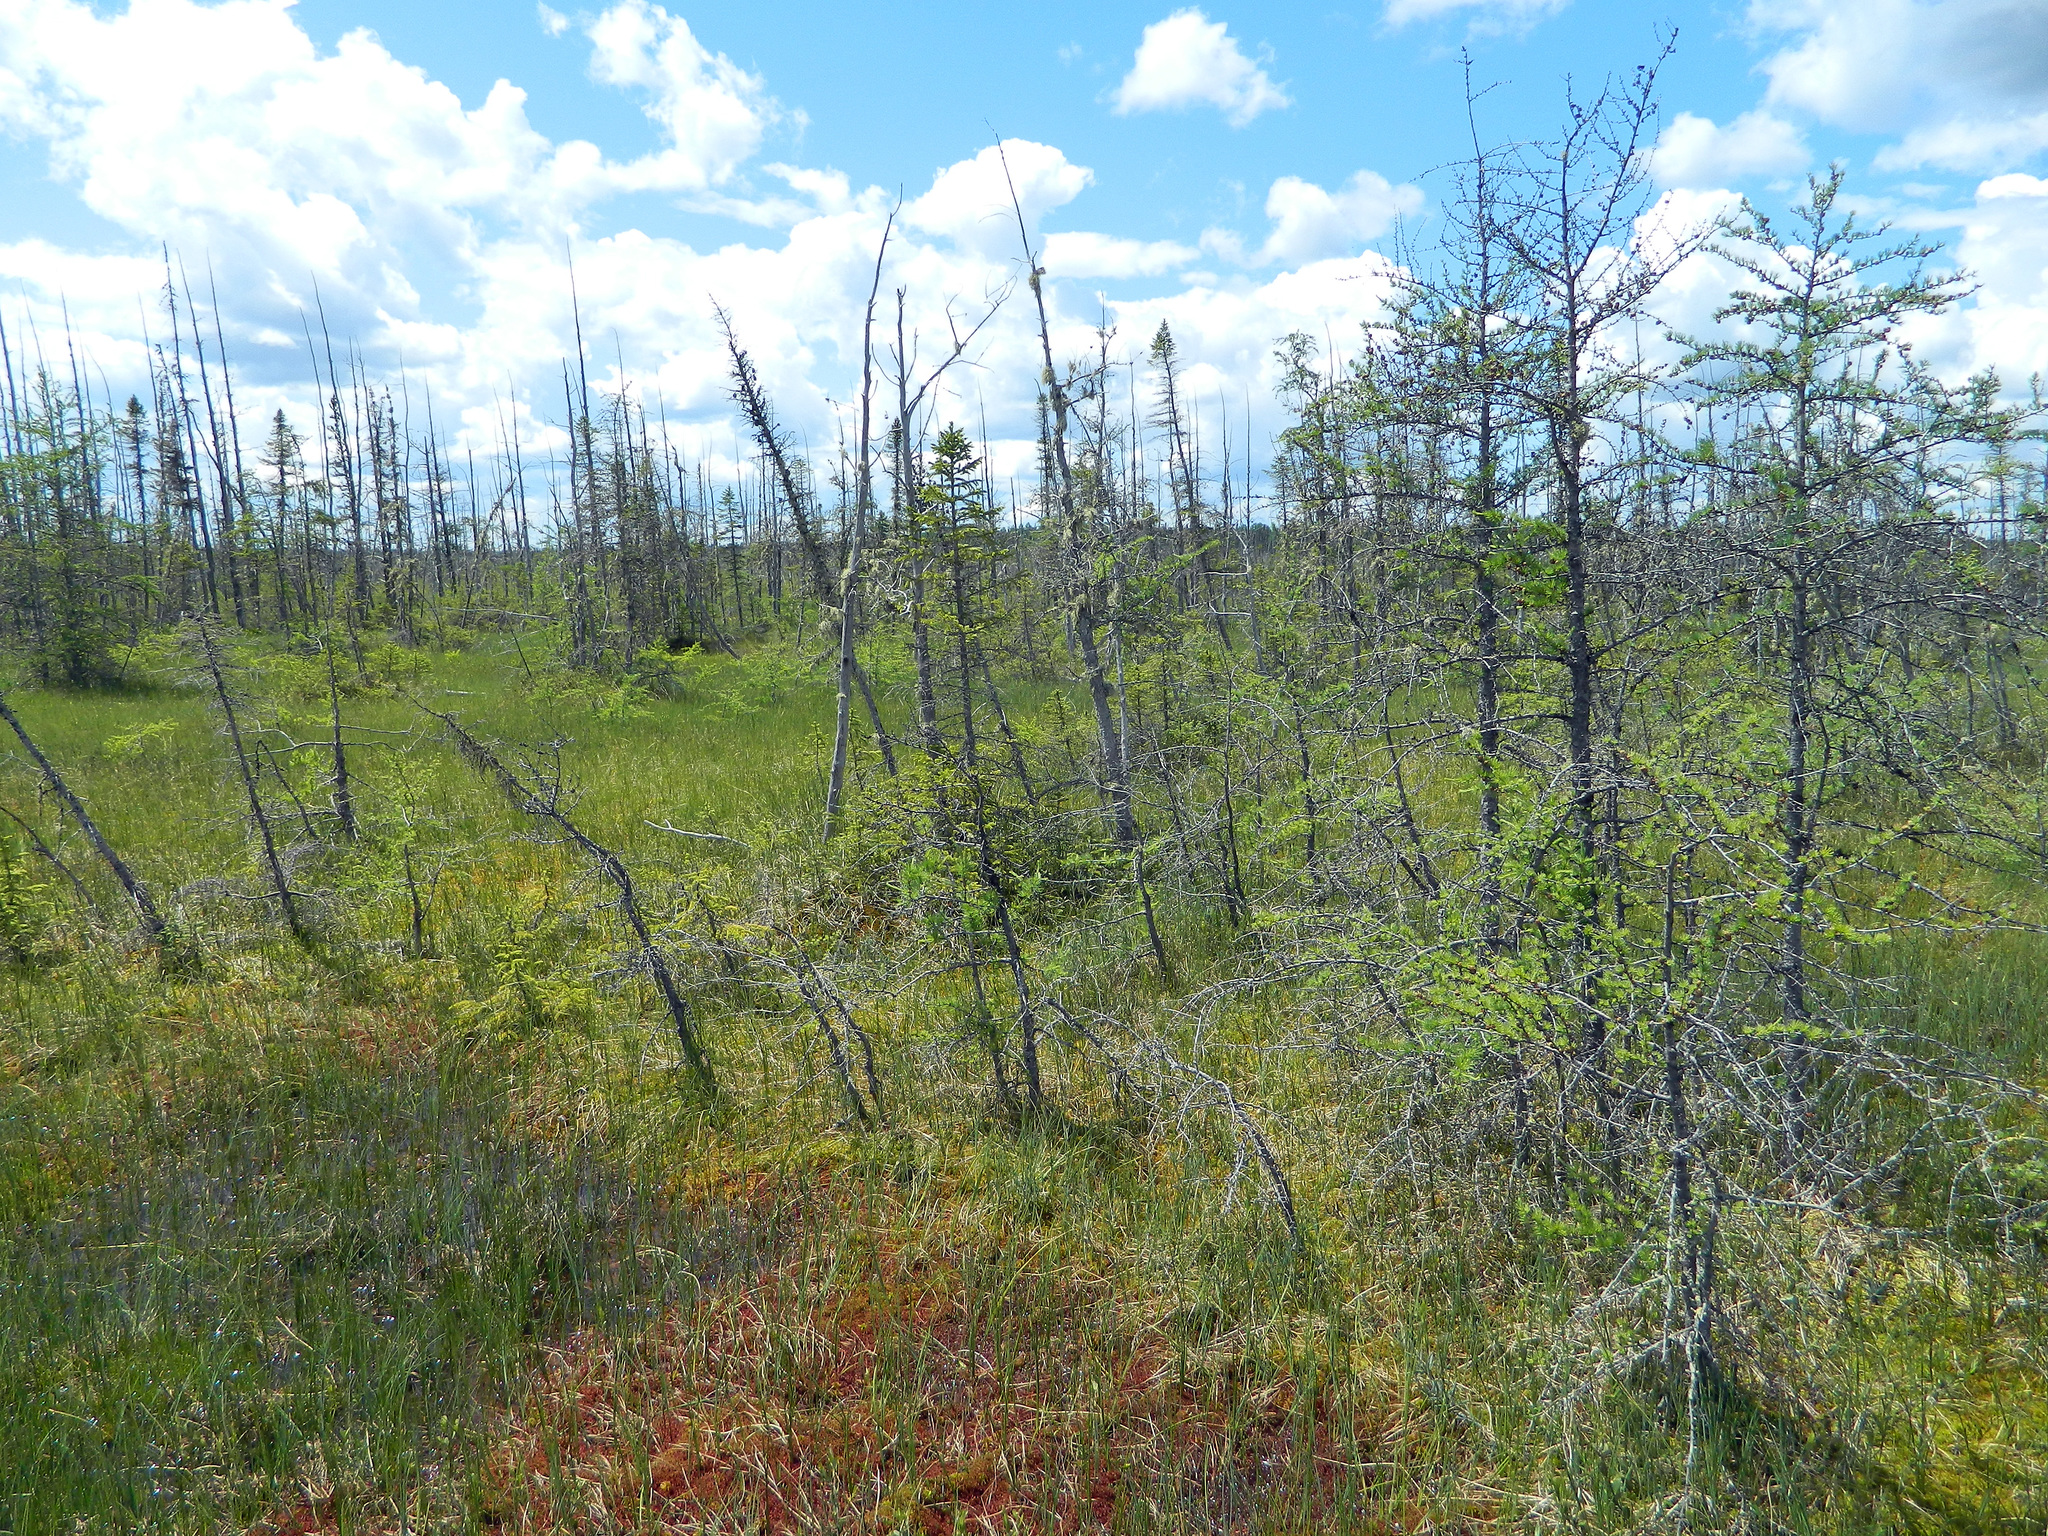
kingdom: Plantae
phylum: Tracheophyta
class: Pinopsida
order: Pinales
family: Pinaceae
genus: Larix
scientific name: Larix laricina
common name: American larch
